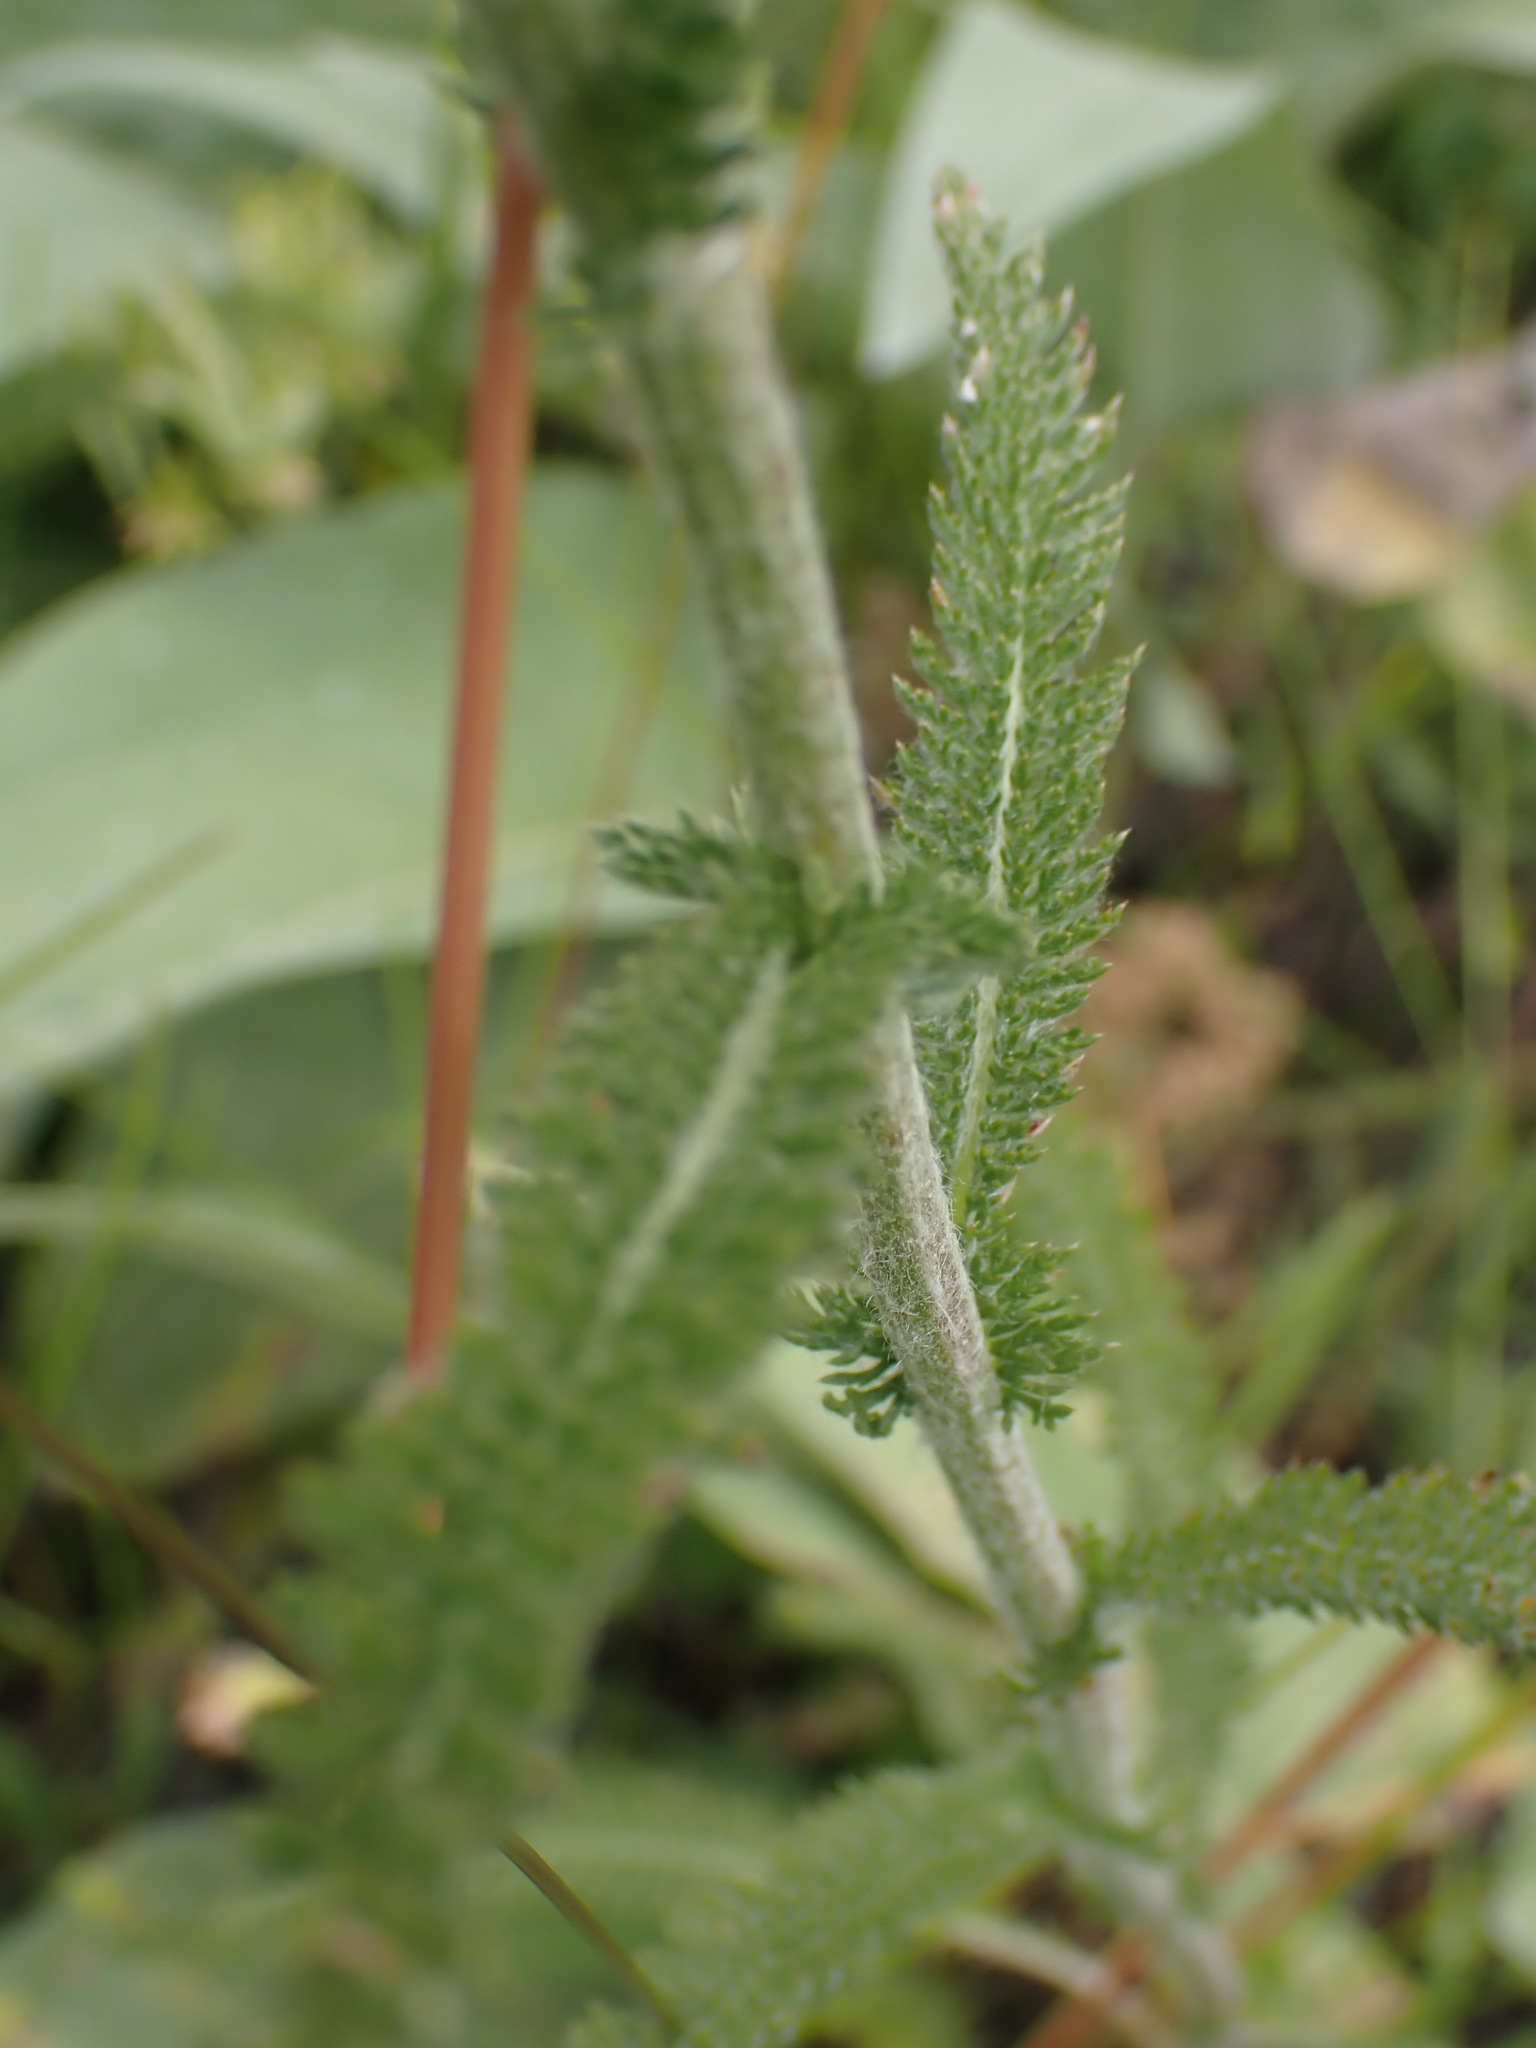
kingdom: Plantae
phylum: Tracheophyta
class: Magnoliopsida
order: Asterales
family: Asteraceae
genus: Achillea
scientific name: Achillea millefolium
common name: Yarrow
